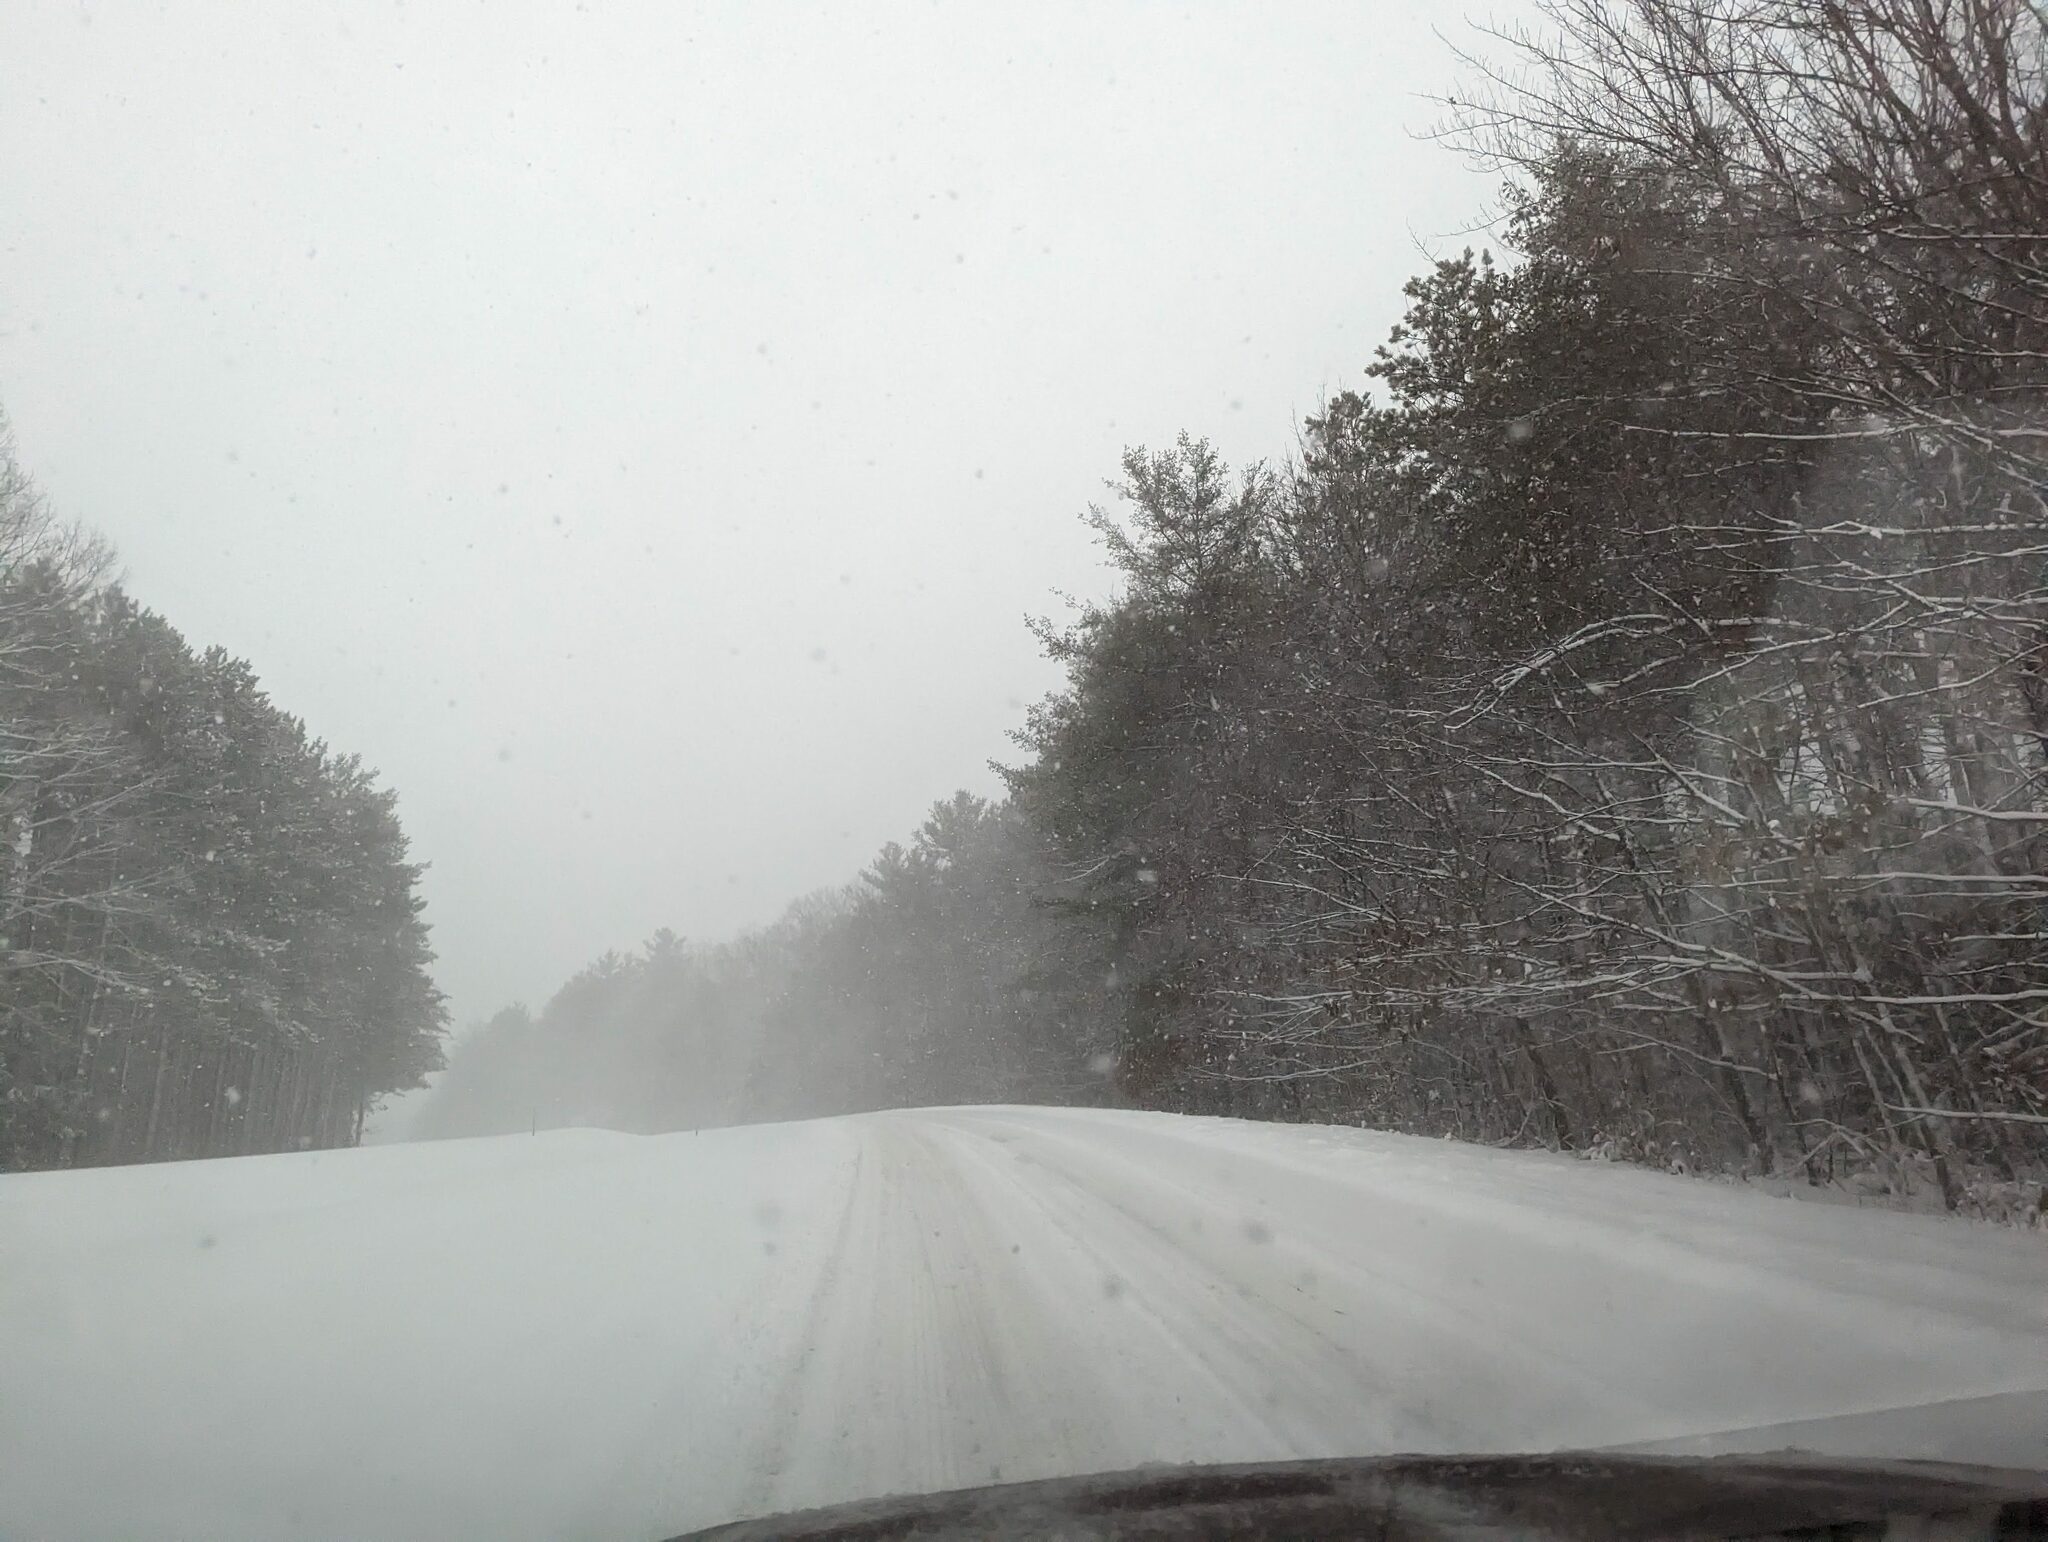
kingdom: Plantae
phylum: Tracheophyta
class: Pinopsida
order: Pinales
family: Pinaceae
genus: Pinus
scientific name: Pinus strobus
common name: Weymouth pine
